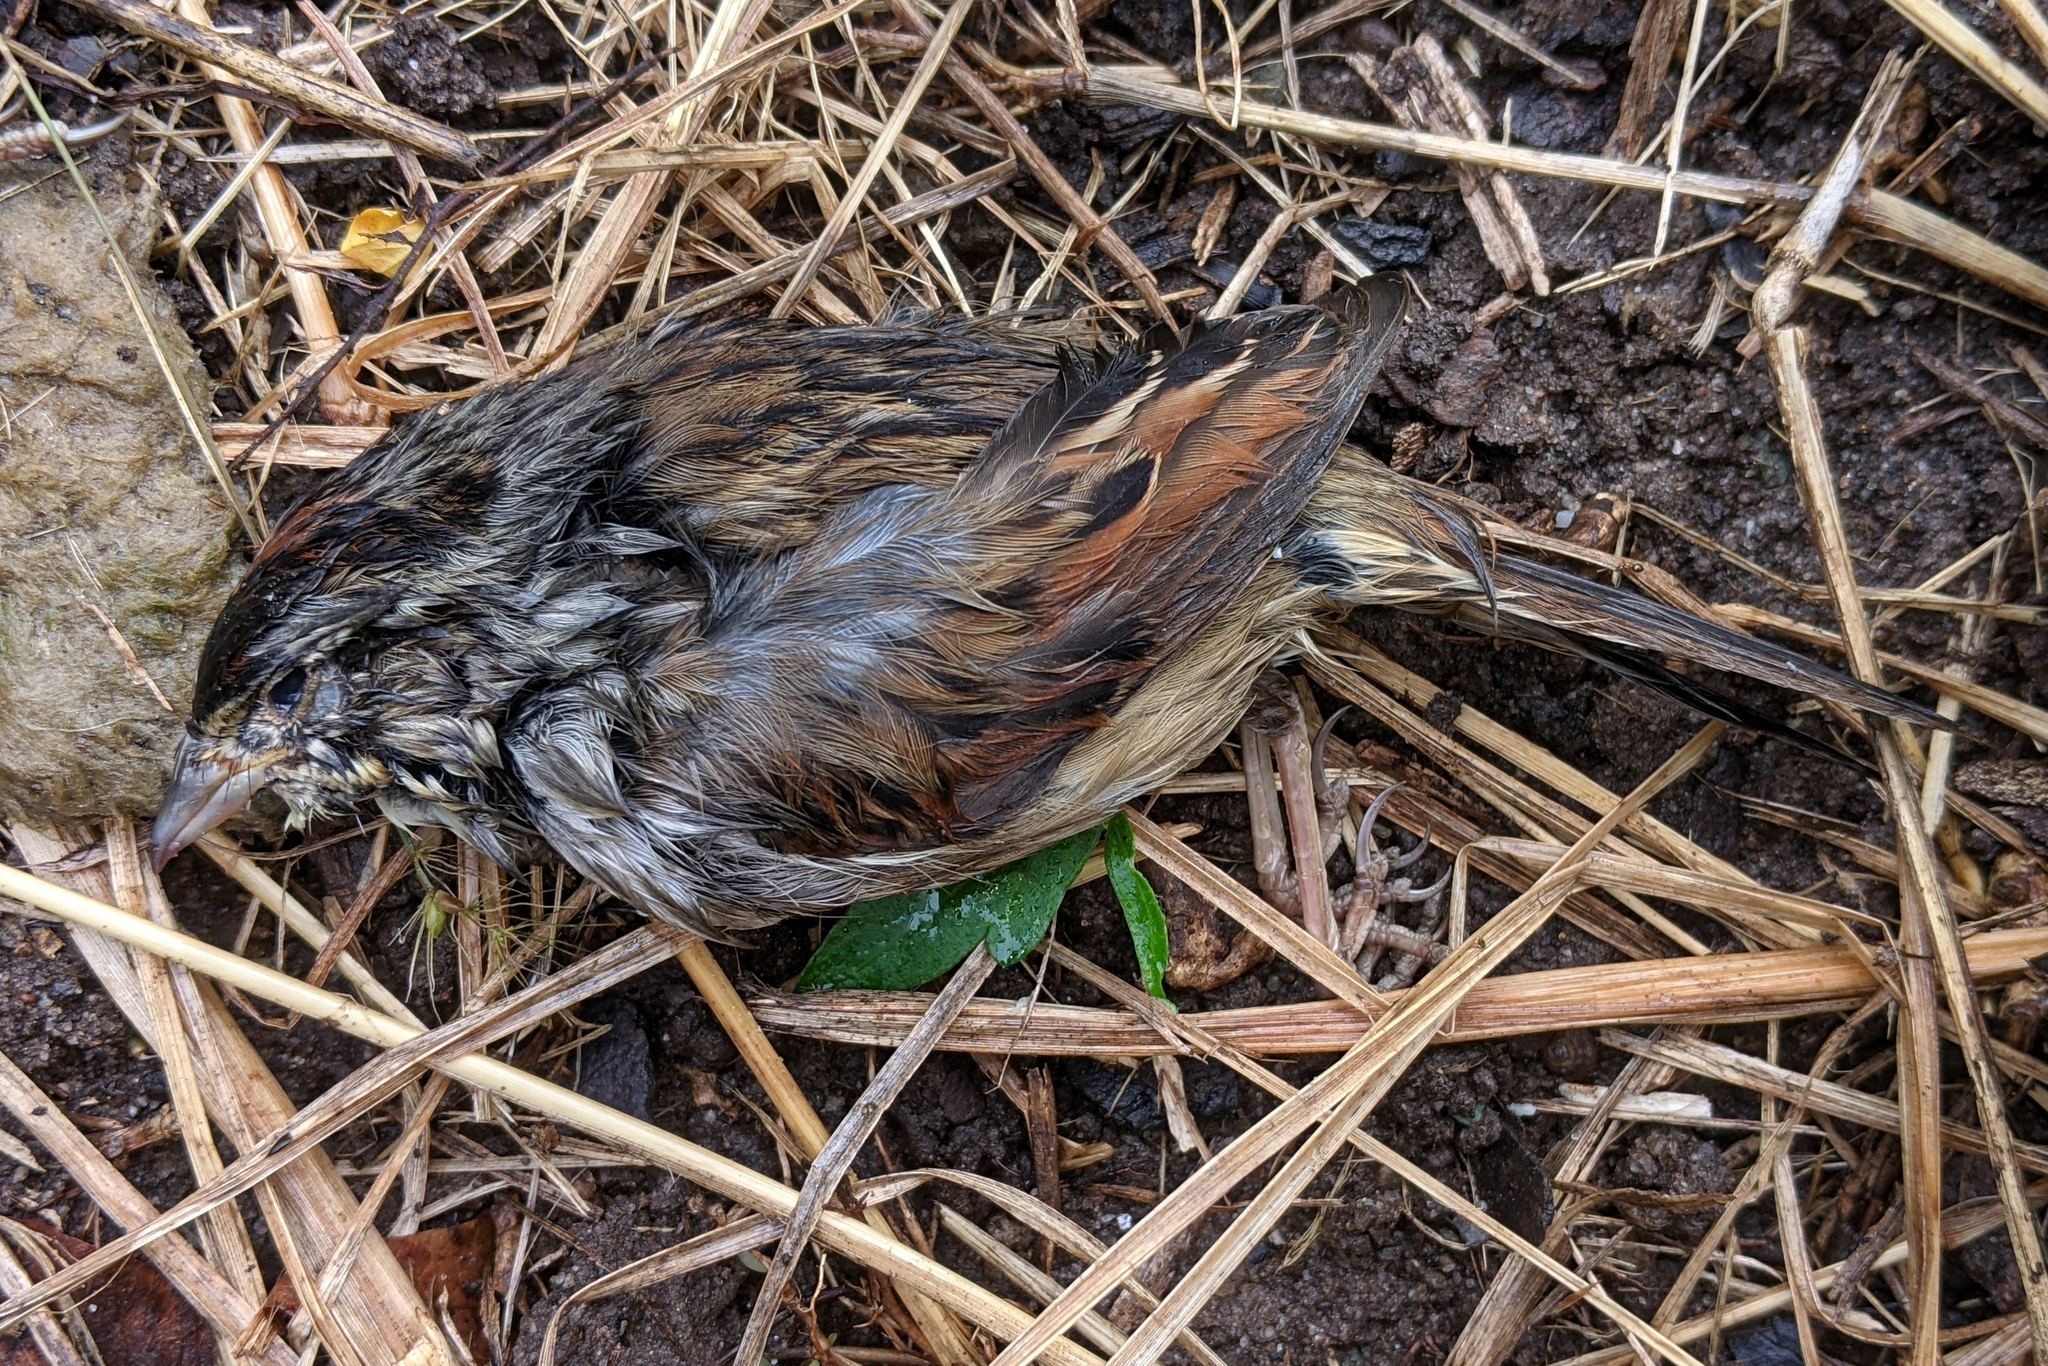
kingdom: Animalia
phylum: Chordata
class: Aves
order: Passeriformes
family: Passerellidae
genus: Melospiza
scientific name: Melospiza georgiana
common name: Swamp sparrow
